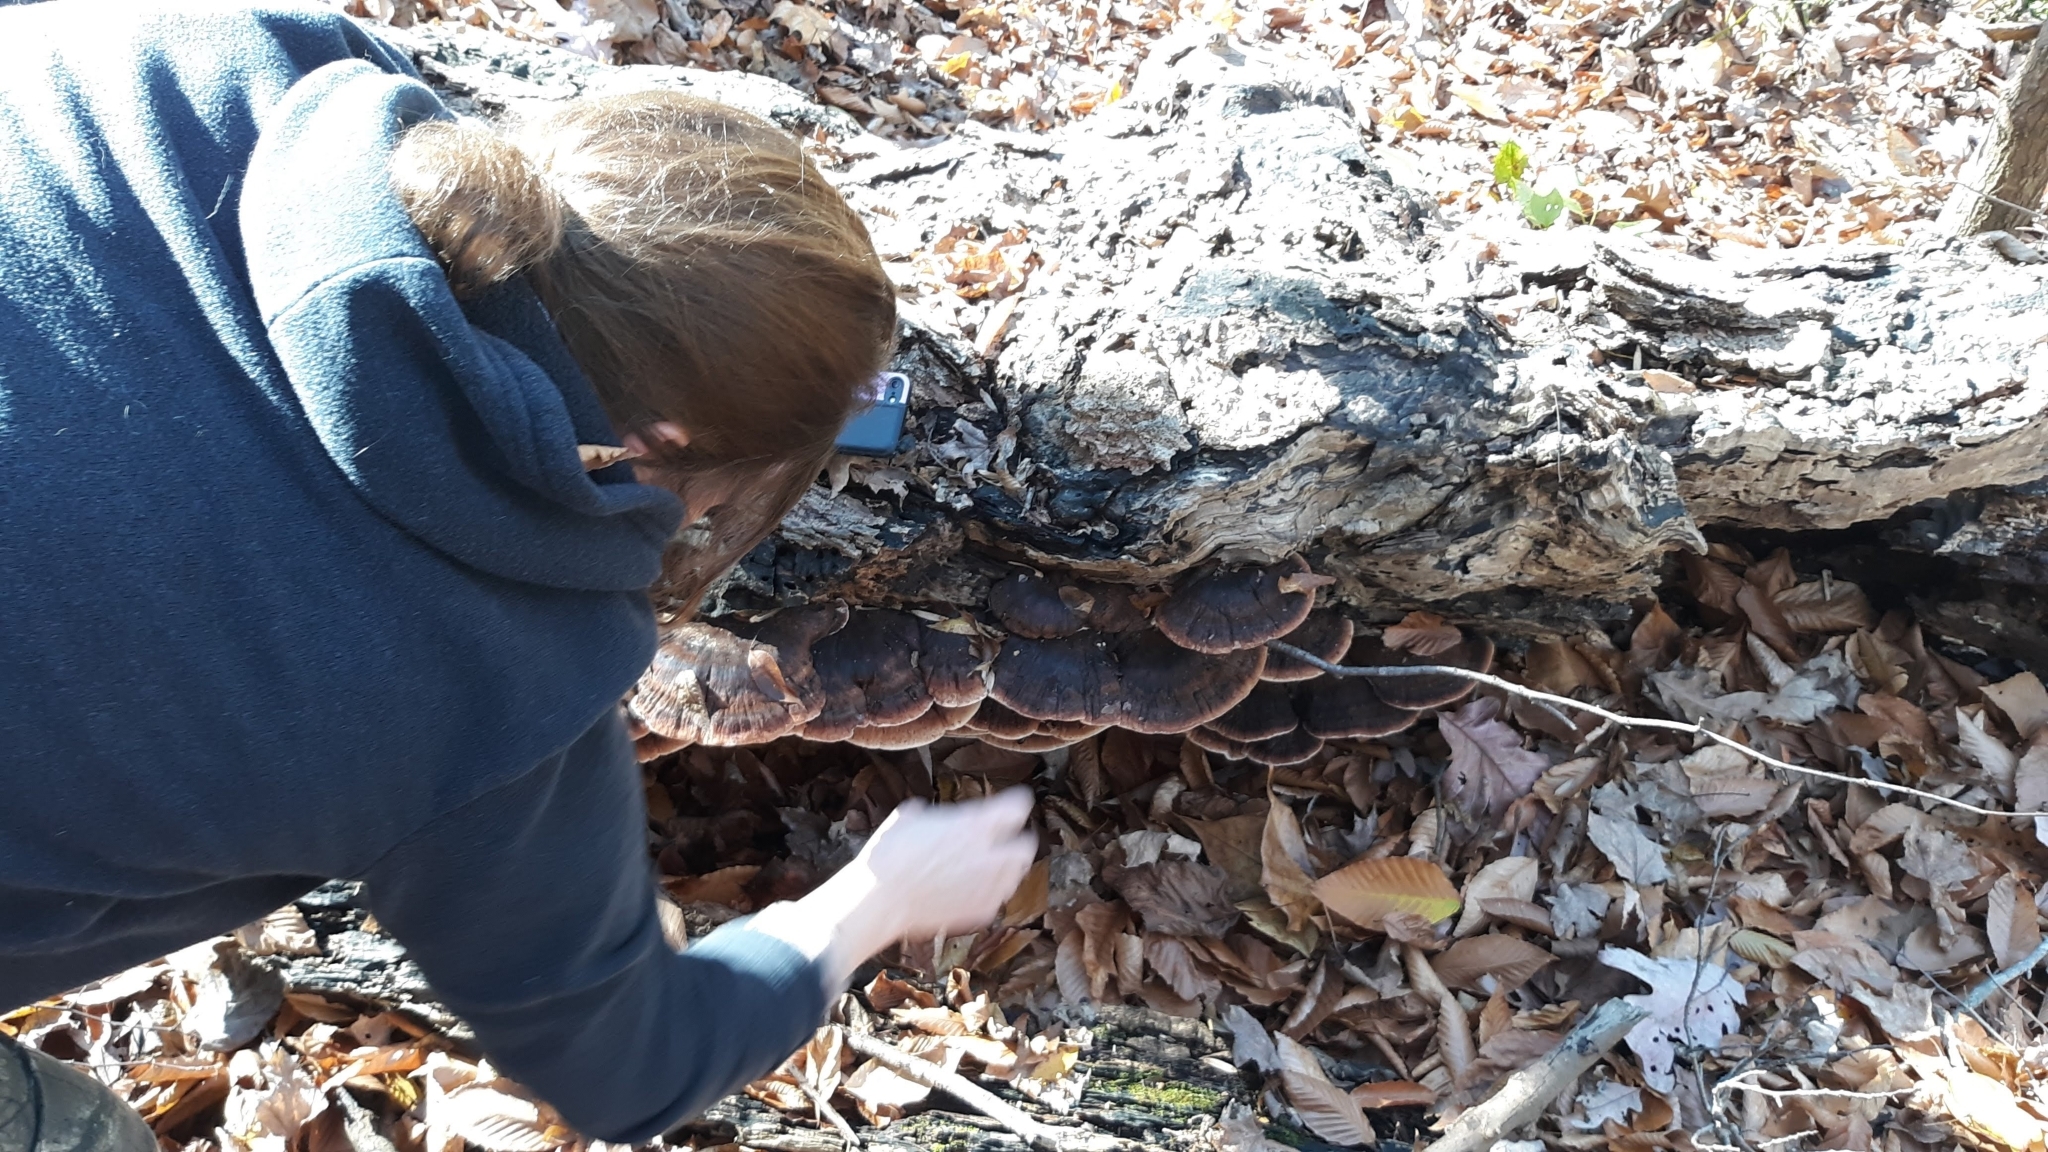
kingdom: Fungi
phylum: Basidiomycota
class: Agaricomycetes
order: Polyporales
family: Ischnodermataceae
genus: Ischnoderma
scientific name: Ischnoderma resinosum
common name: Resinous polypore
